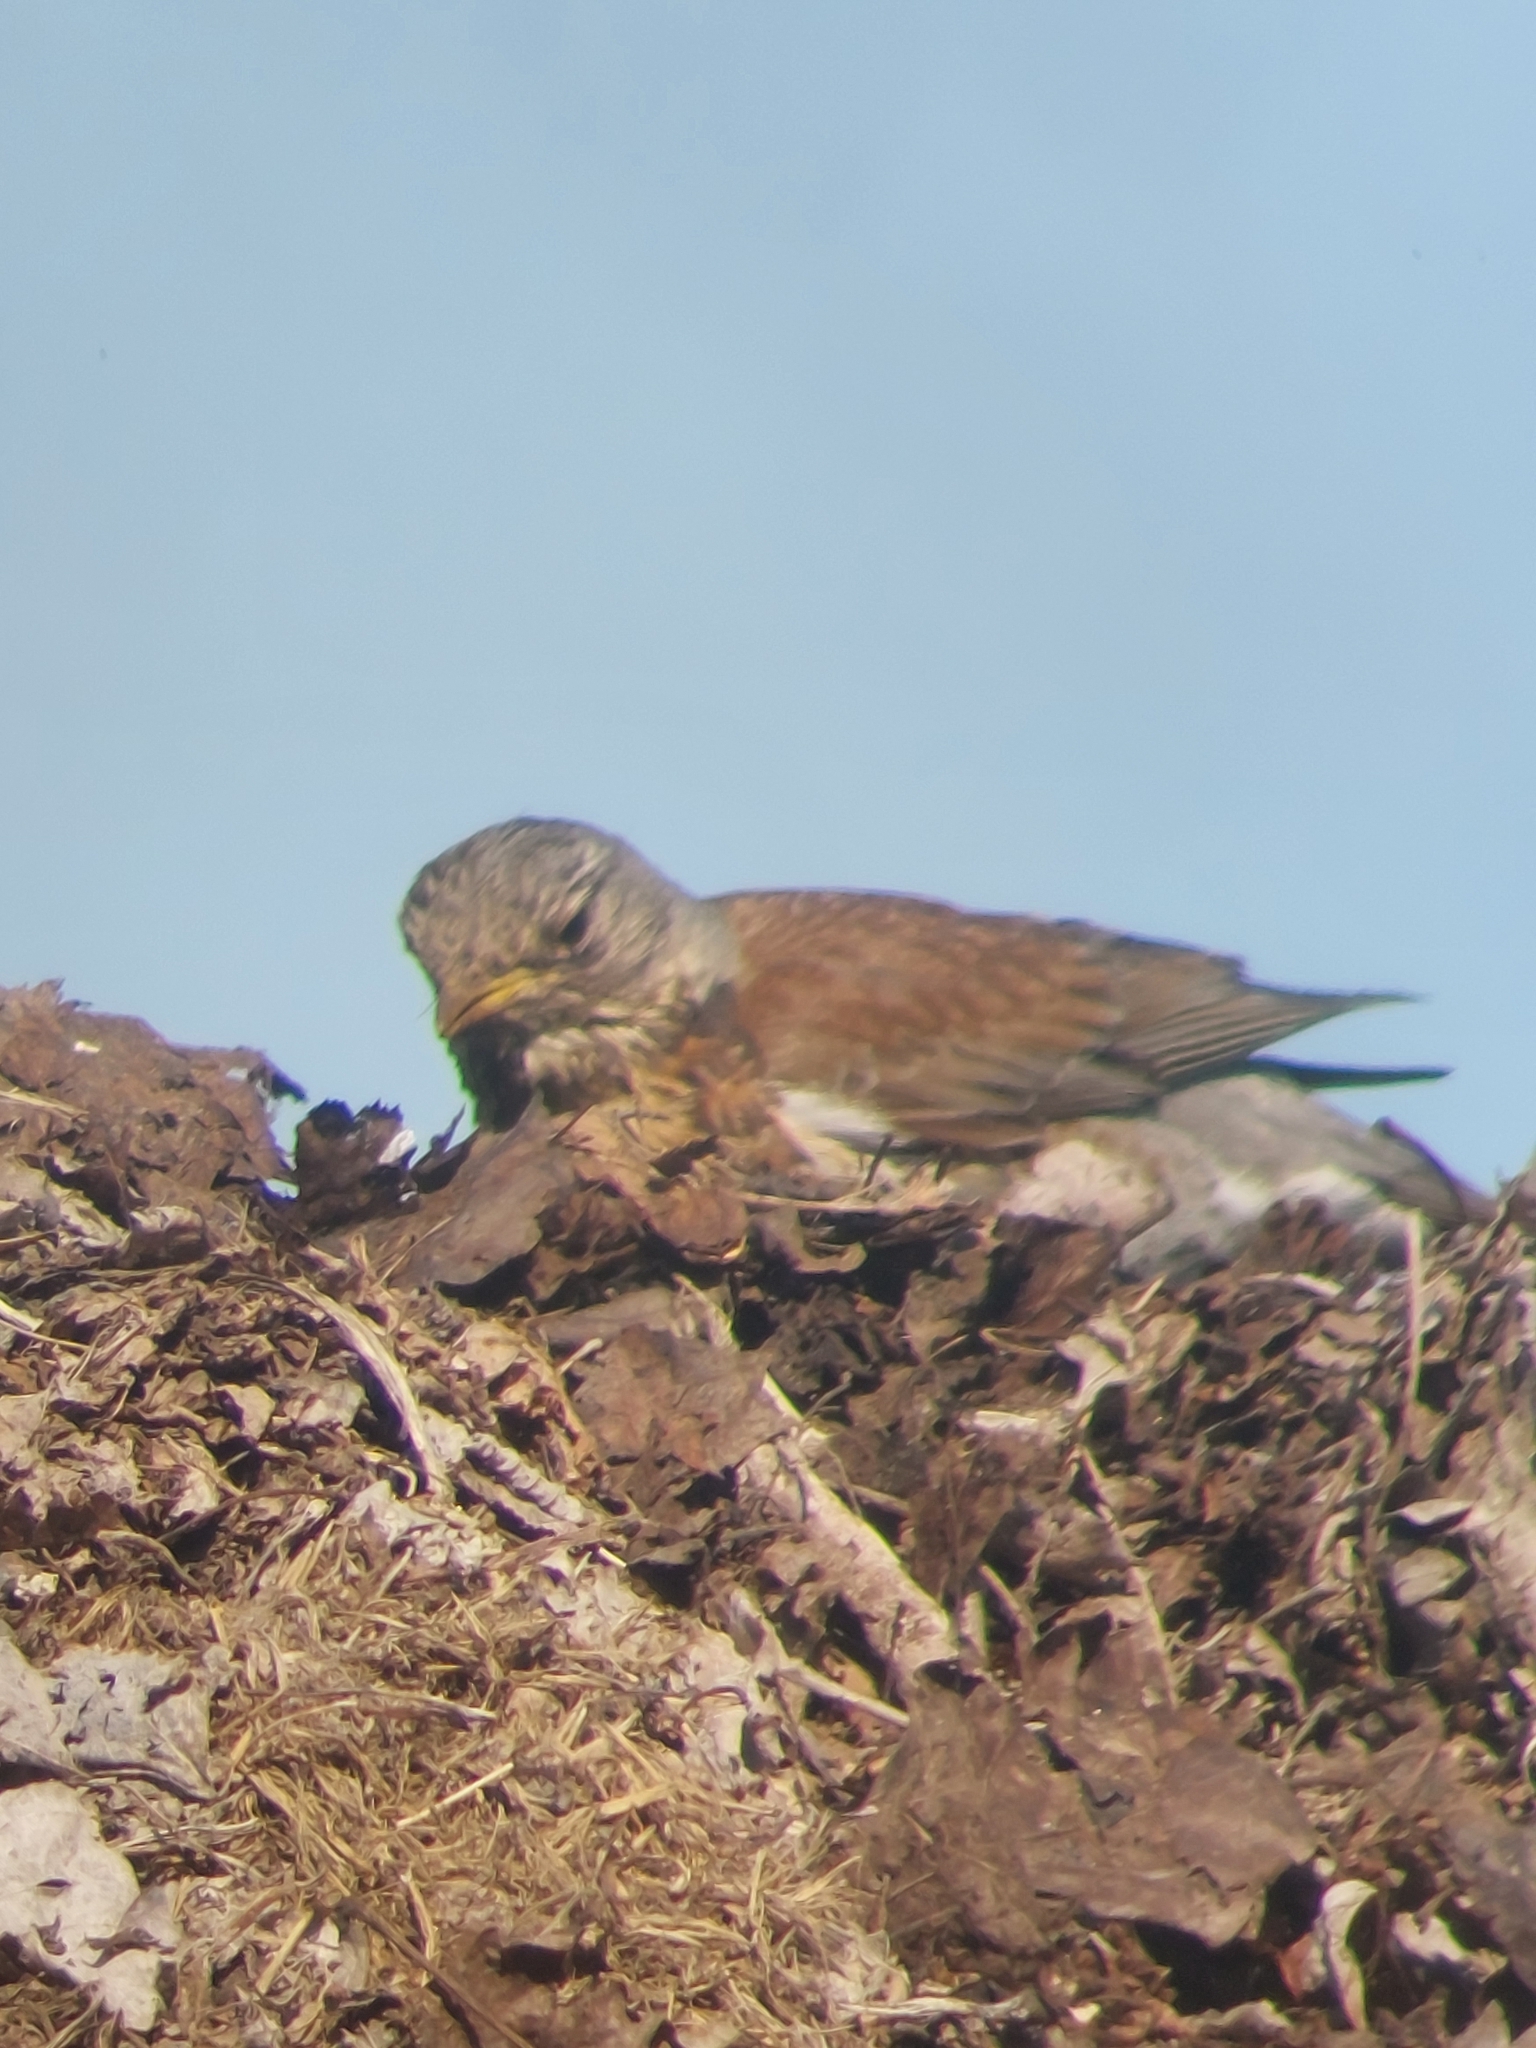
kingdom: Animalia
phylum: Chordata
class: Aves
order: Passeriformes
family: Turdidae
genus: Turdus
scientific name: Turdus pilaris
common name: Fieldfare
